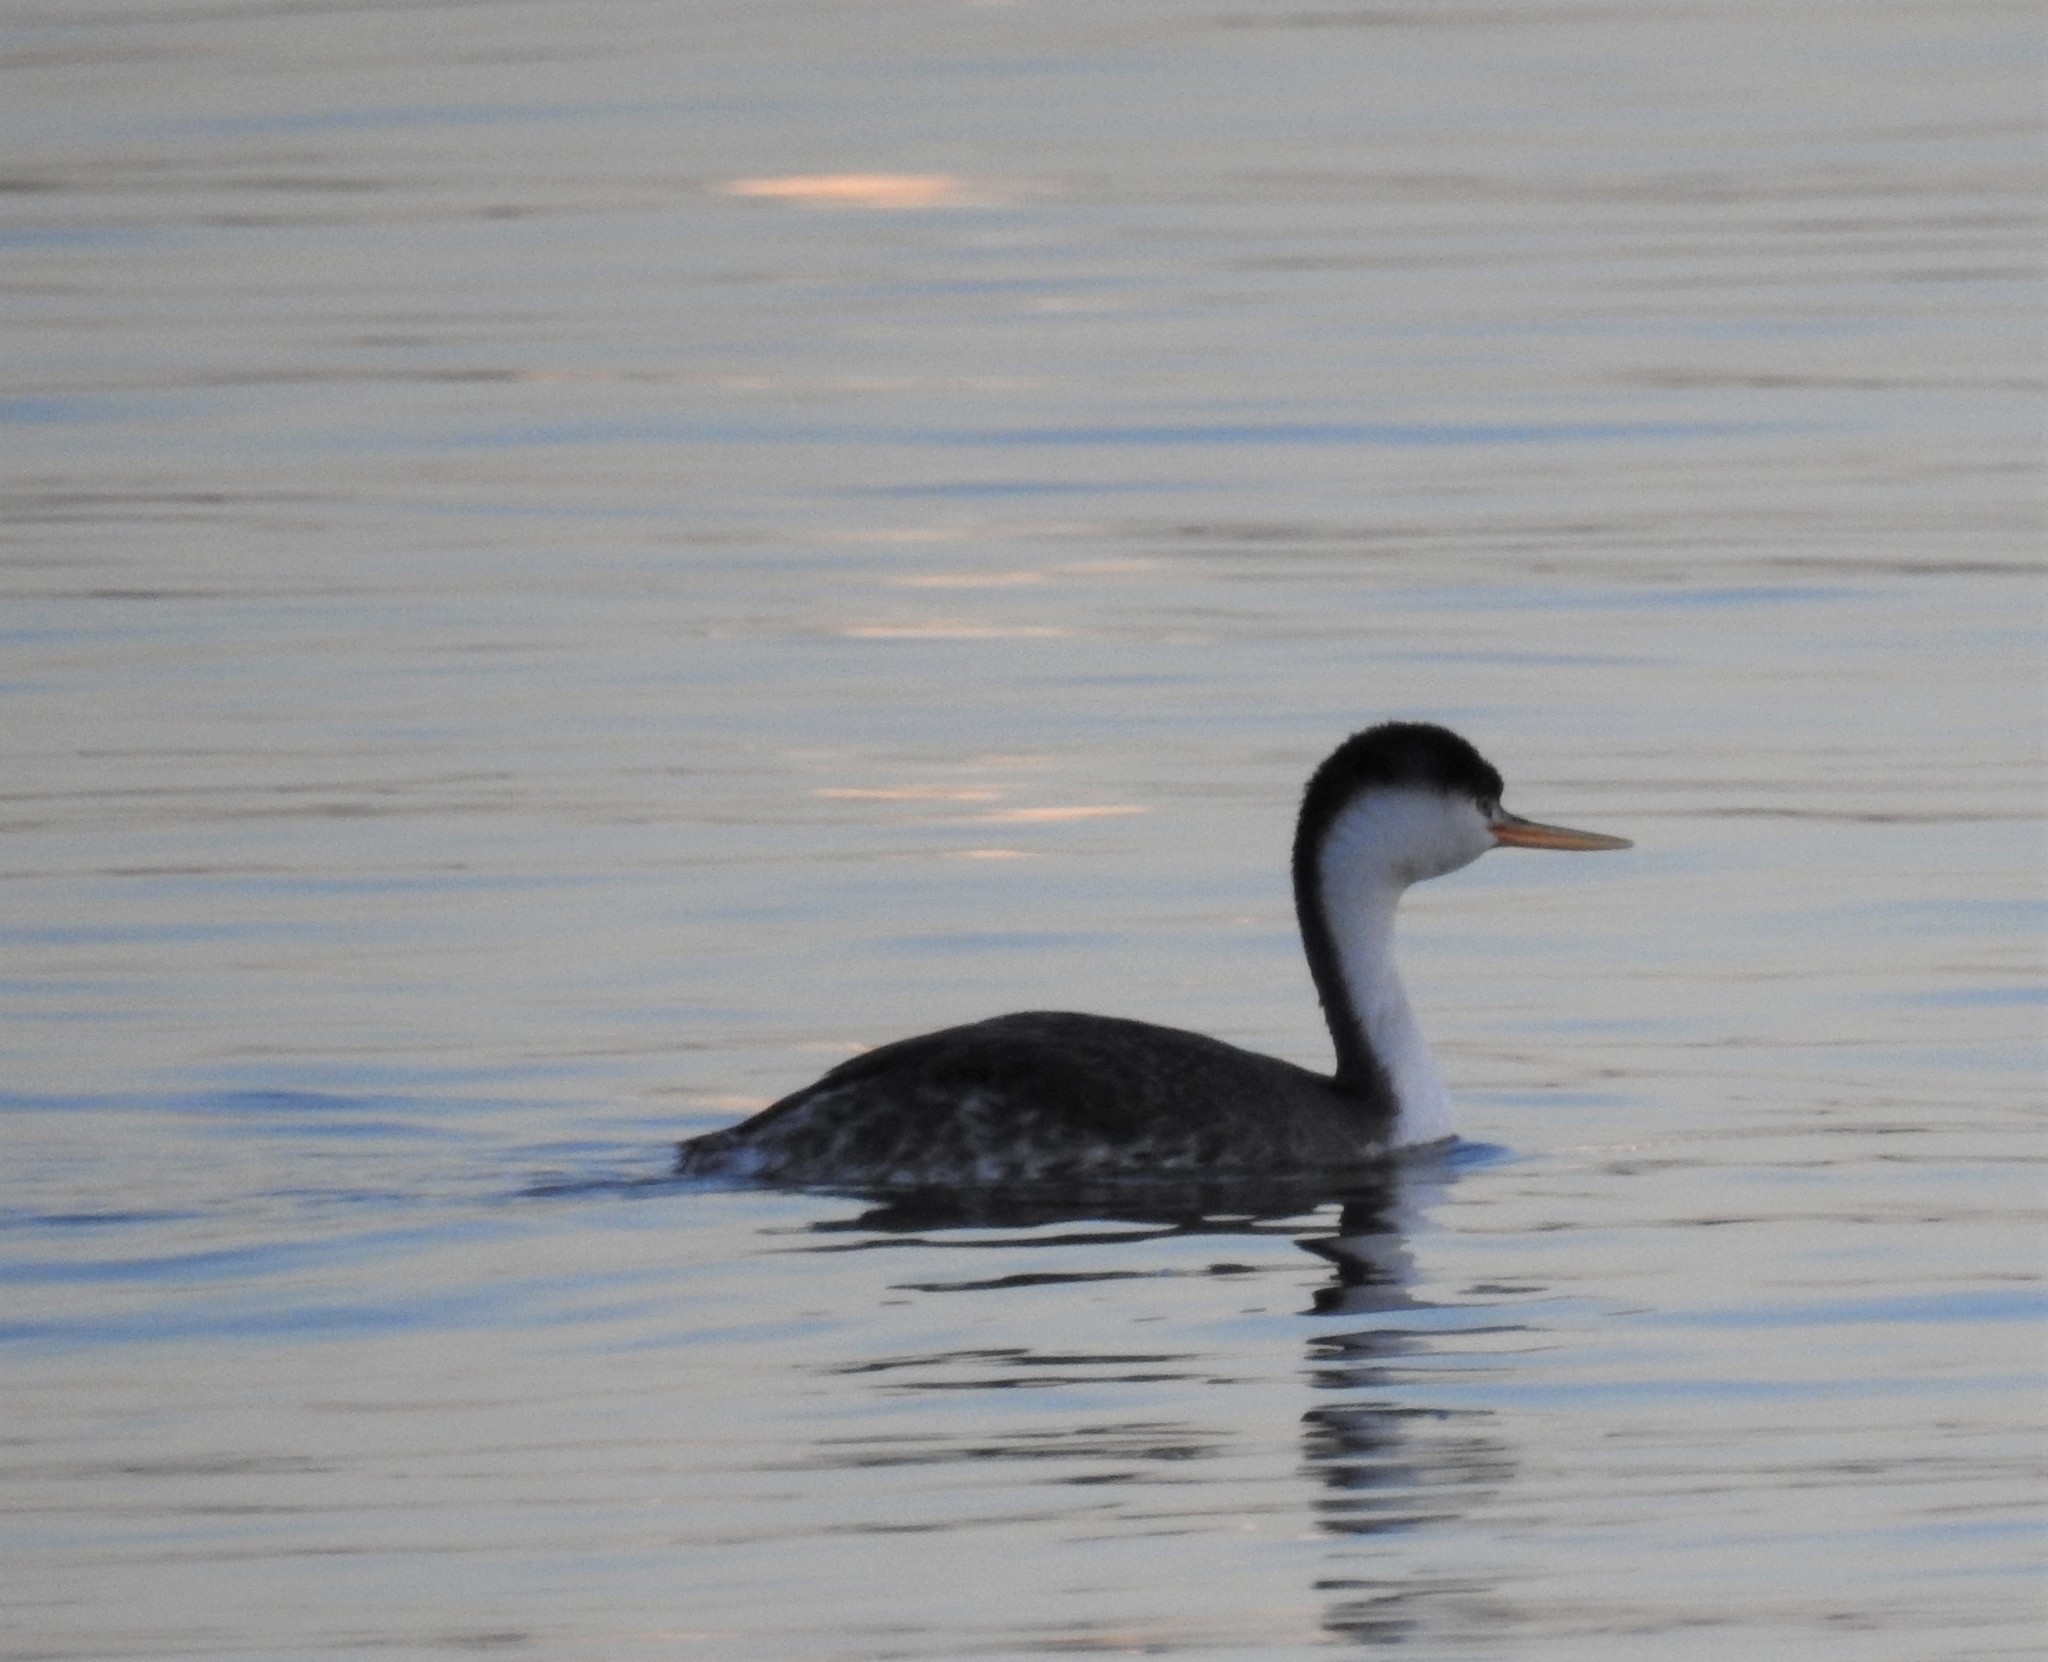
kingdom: Animalia
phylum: Chordata
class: Aves
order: Podicipediformes
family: Podicipedidae
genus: Aechmophorus
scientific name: Aechmophorus clarkii
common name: Clark's grebe
